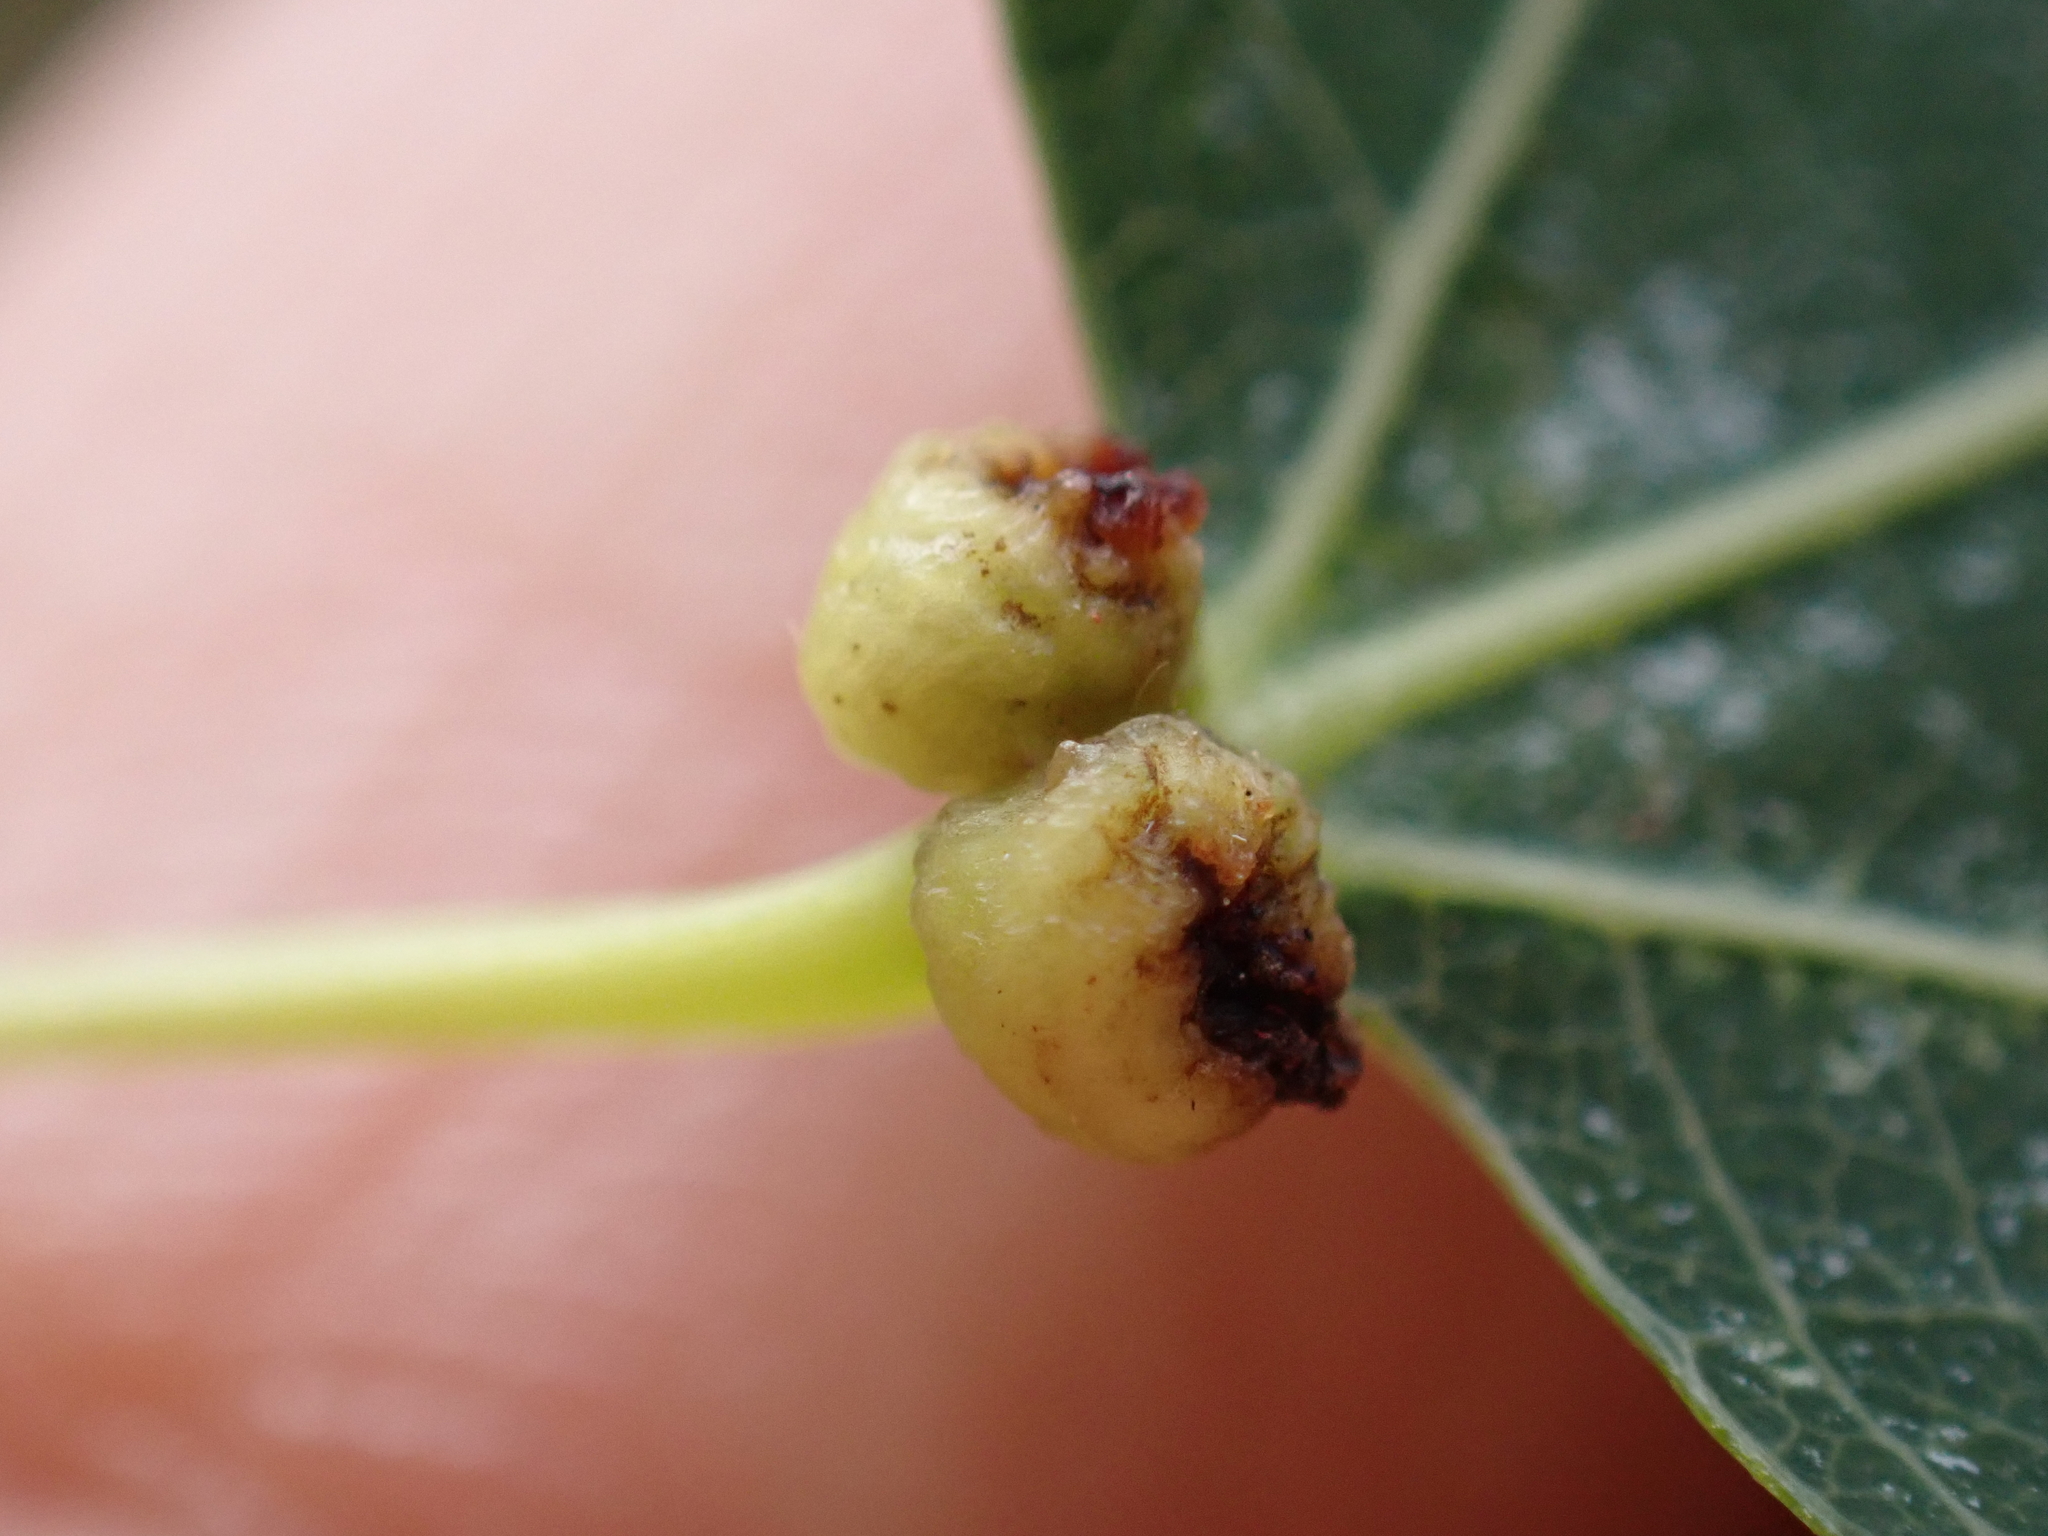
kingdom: Animalia
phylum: Arthropoda
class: Arachnida
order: Trombidiformes
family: Eriophyidae
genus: Eriophyes
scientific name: Eriophyes diversipunctatus
